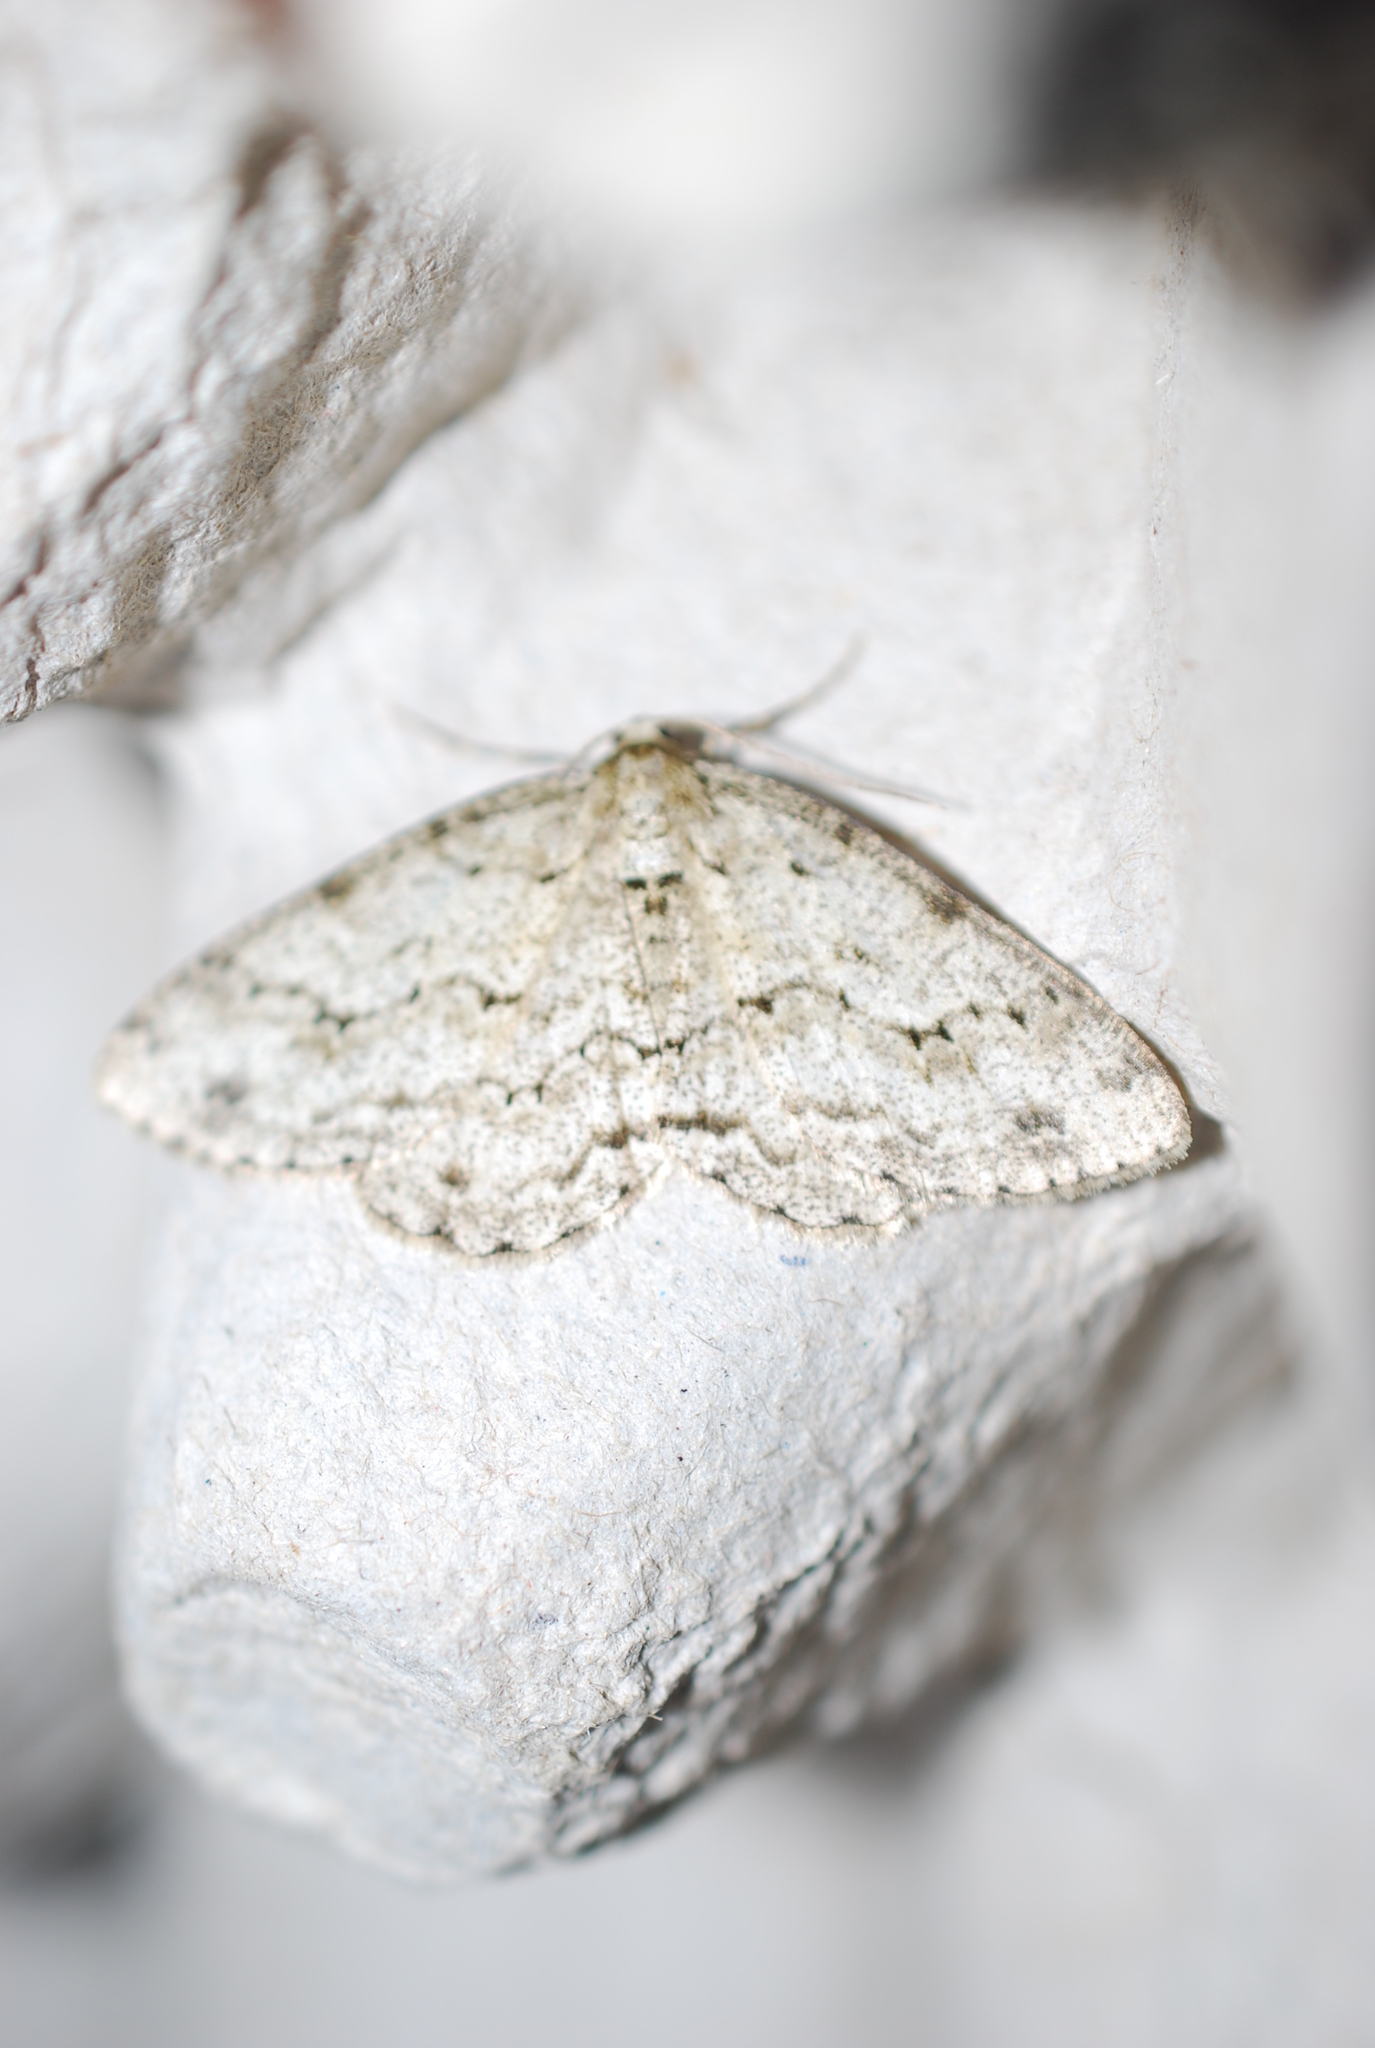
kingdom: Animalia
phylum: Arthropoda
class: Insecta
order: Lepidoptera
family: Geometridae
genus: Ectropis
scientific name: Ectropis crepuscularia
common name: Engrailed
